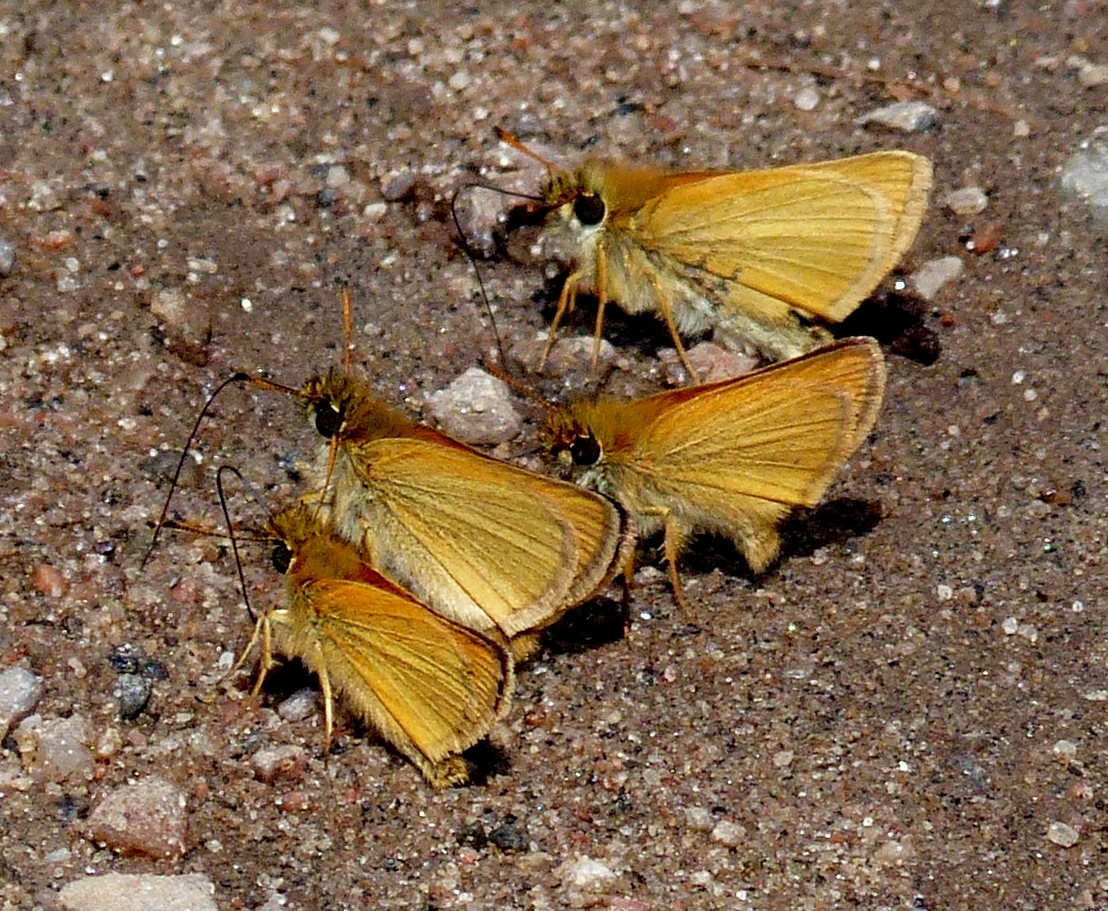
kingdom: Animalia
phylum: Arthropoda
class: Insecta
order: Lepidoptera
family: Hesperiidae
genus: Thymelicus
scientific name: Thymelicus lineola
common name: Essex skipper
